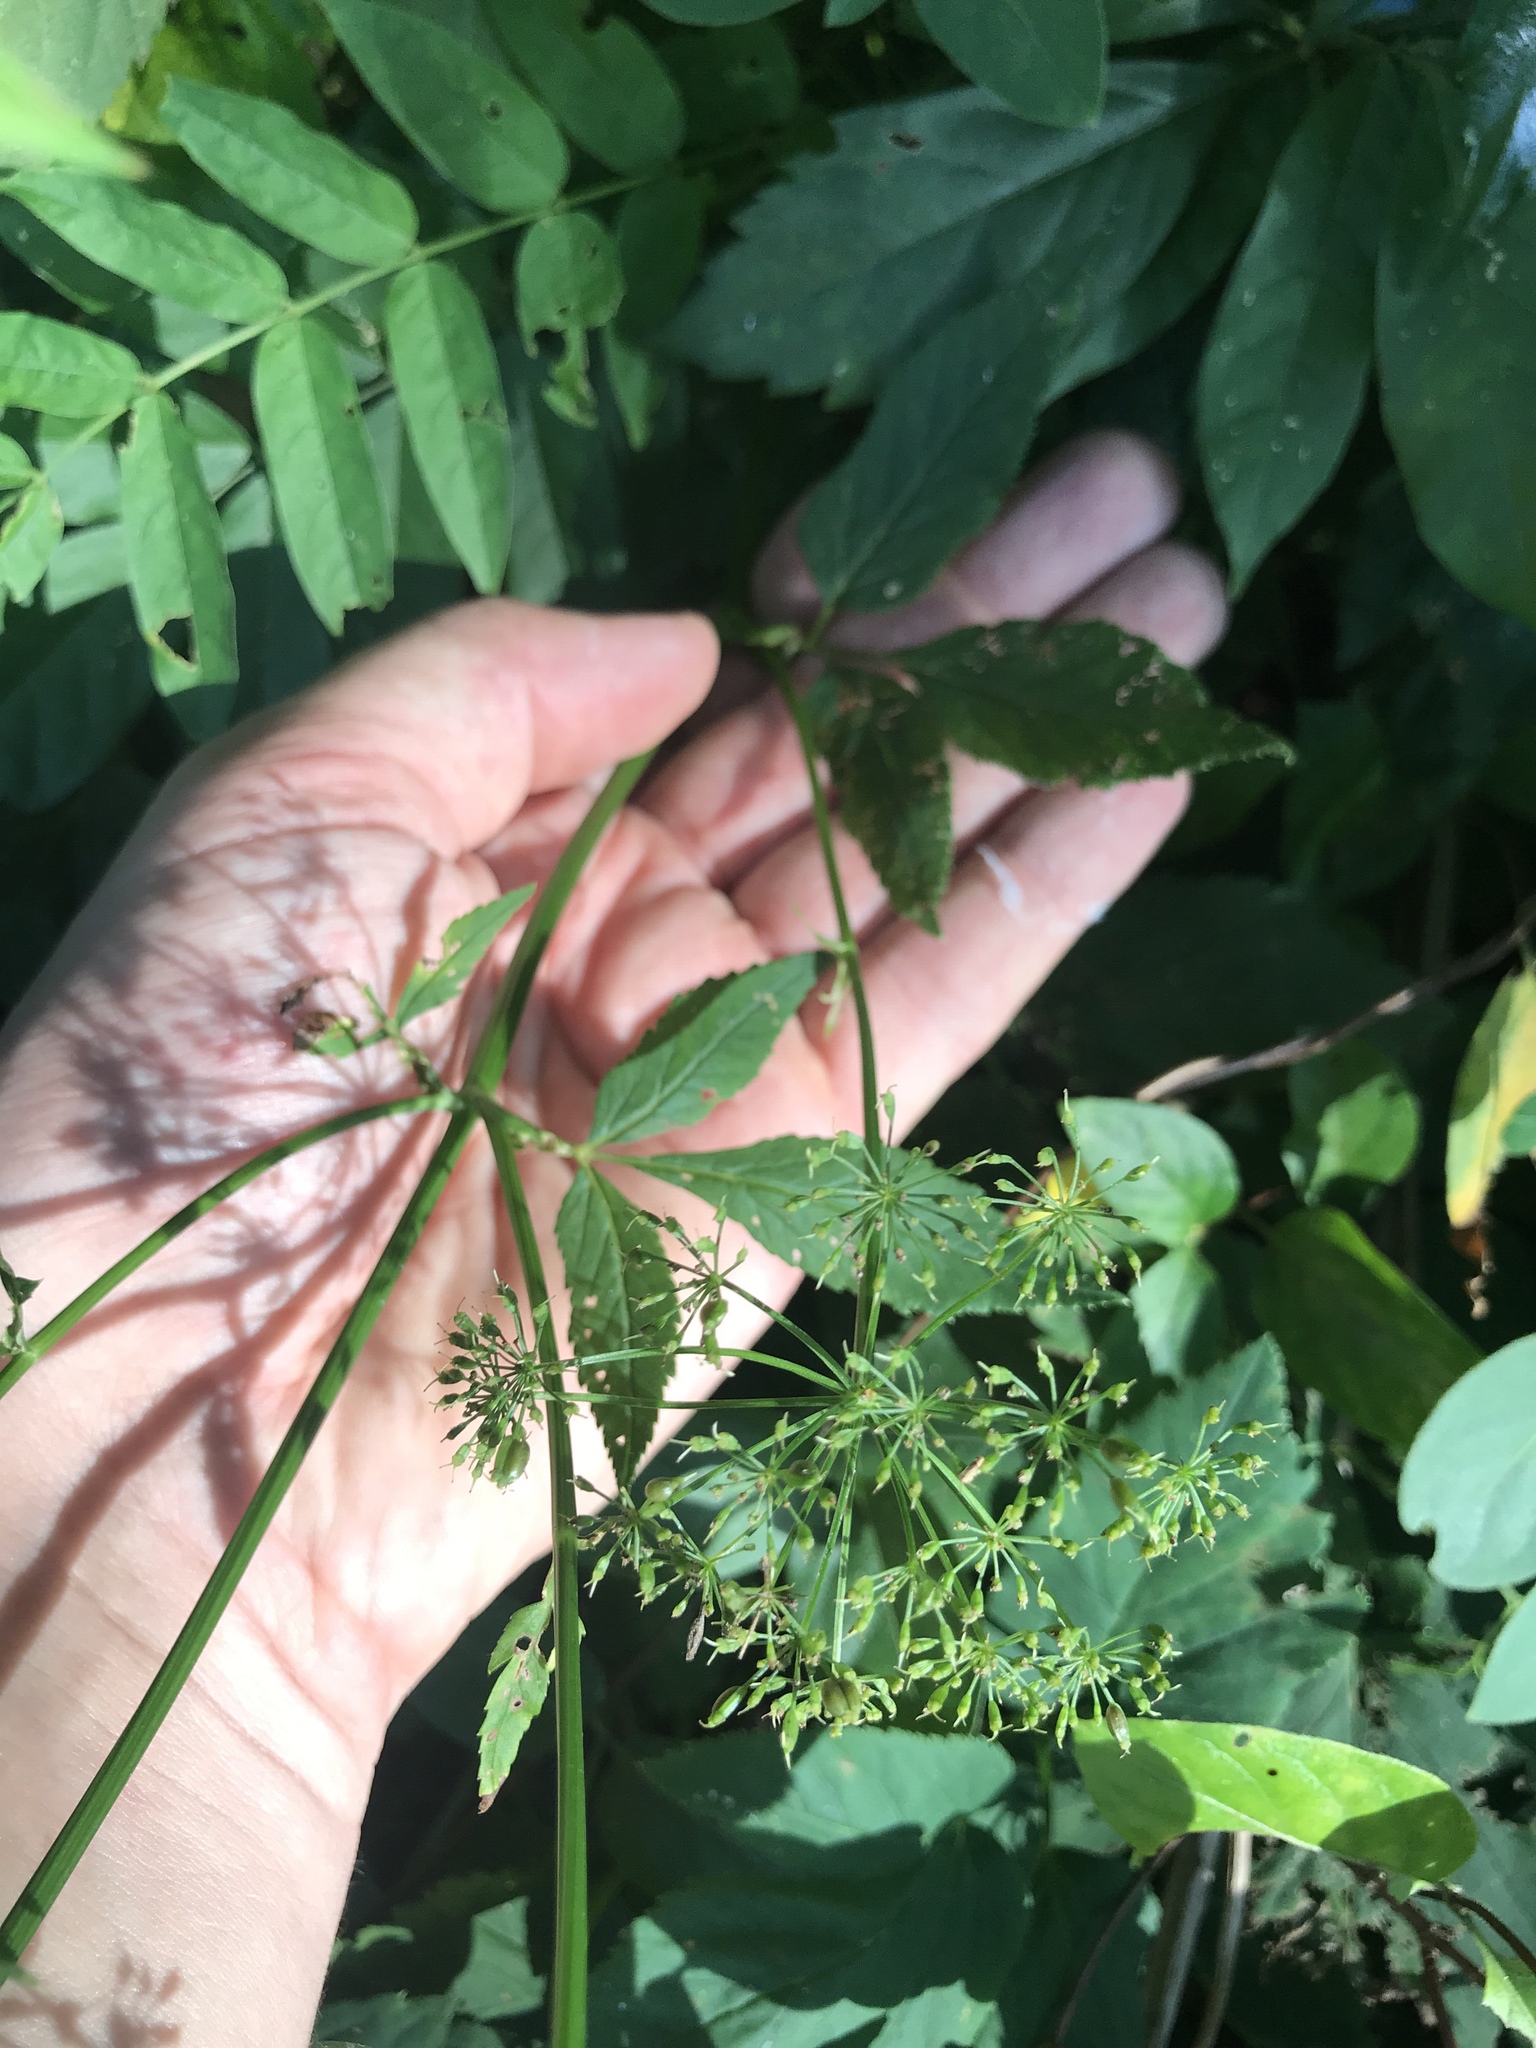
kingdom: Plantae
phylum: Tracheophyta
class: Magnoliopsida
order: Apiales
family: Apiaceae
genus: Aegopodium
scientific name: Aegopodium podagraria
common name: Ground-elder
